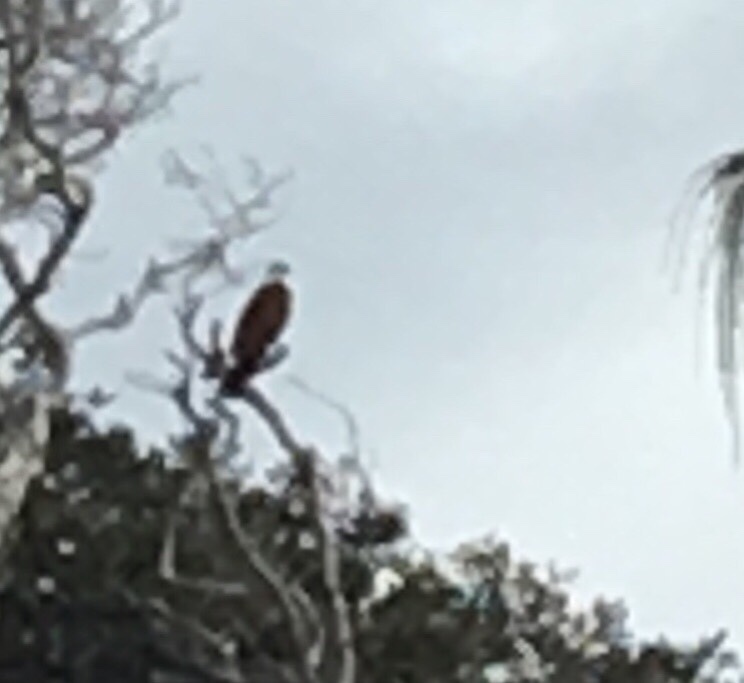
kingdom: Animalia
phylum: Chordata
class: Aves
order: Accipitriformes
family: Accipitridae
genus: Haliastur
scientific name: Haliastur indus
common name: Brahminy kite
